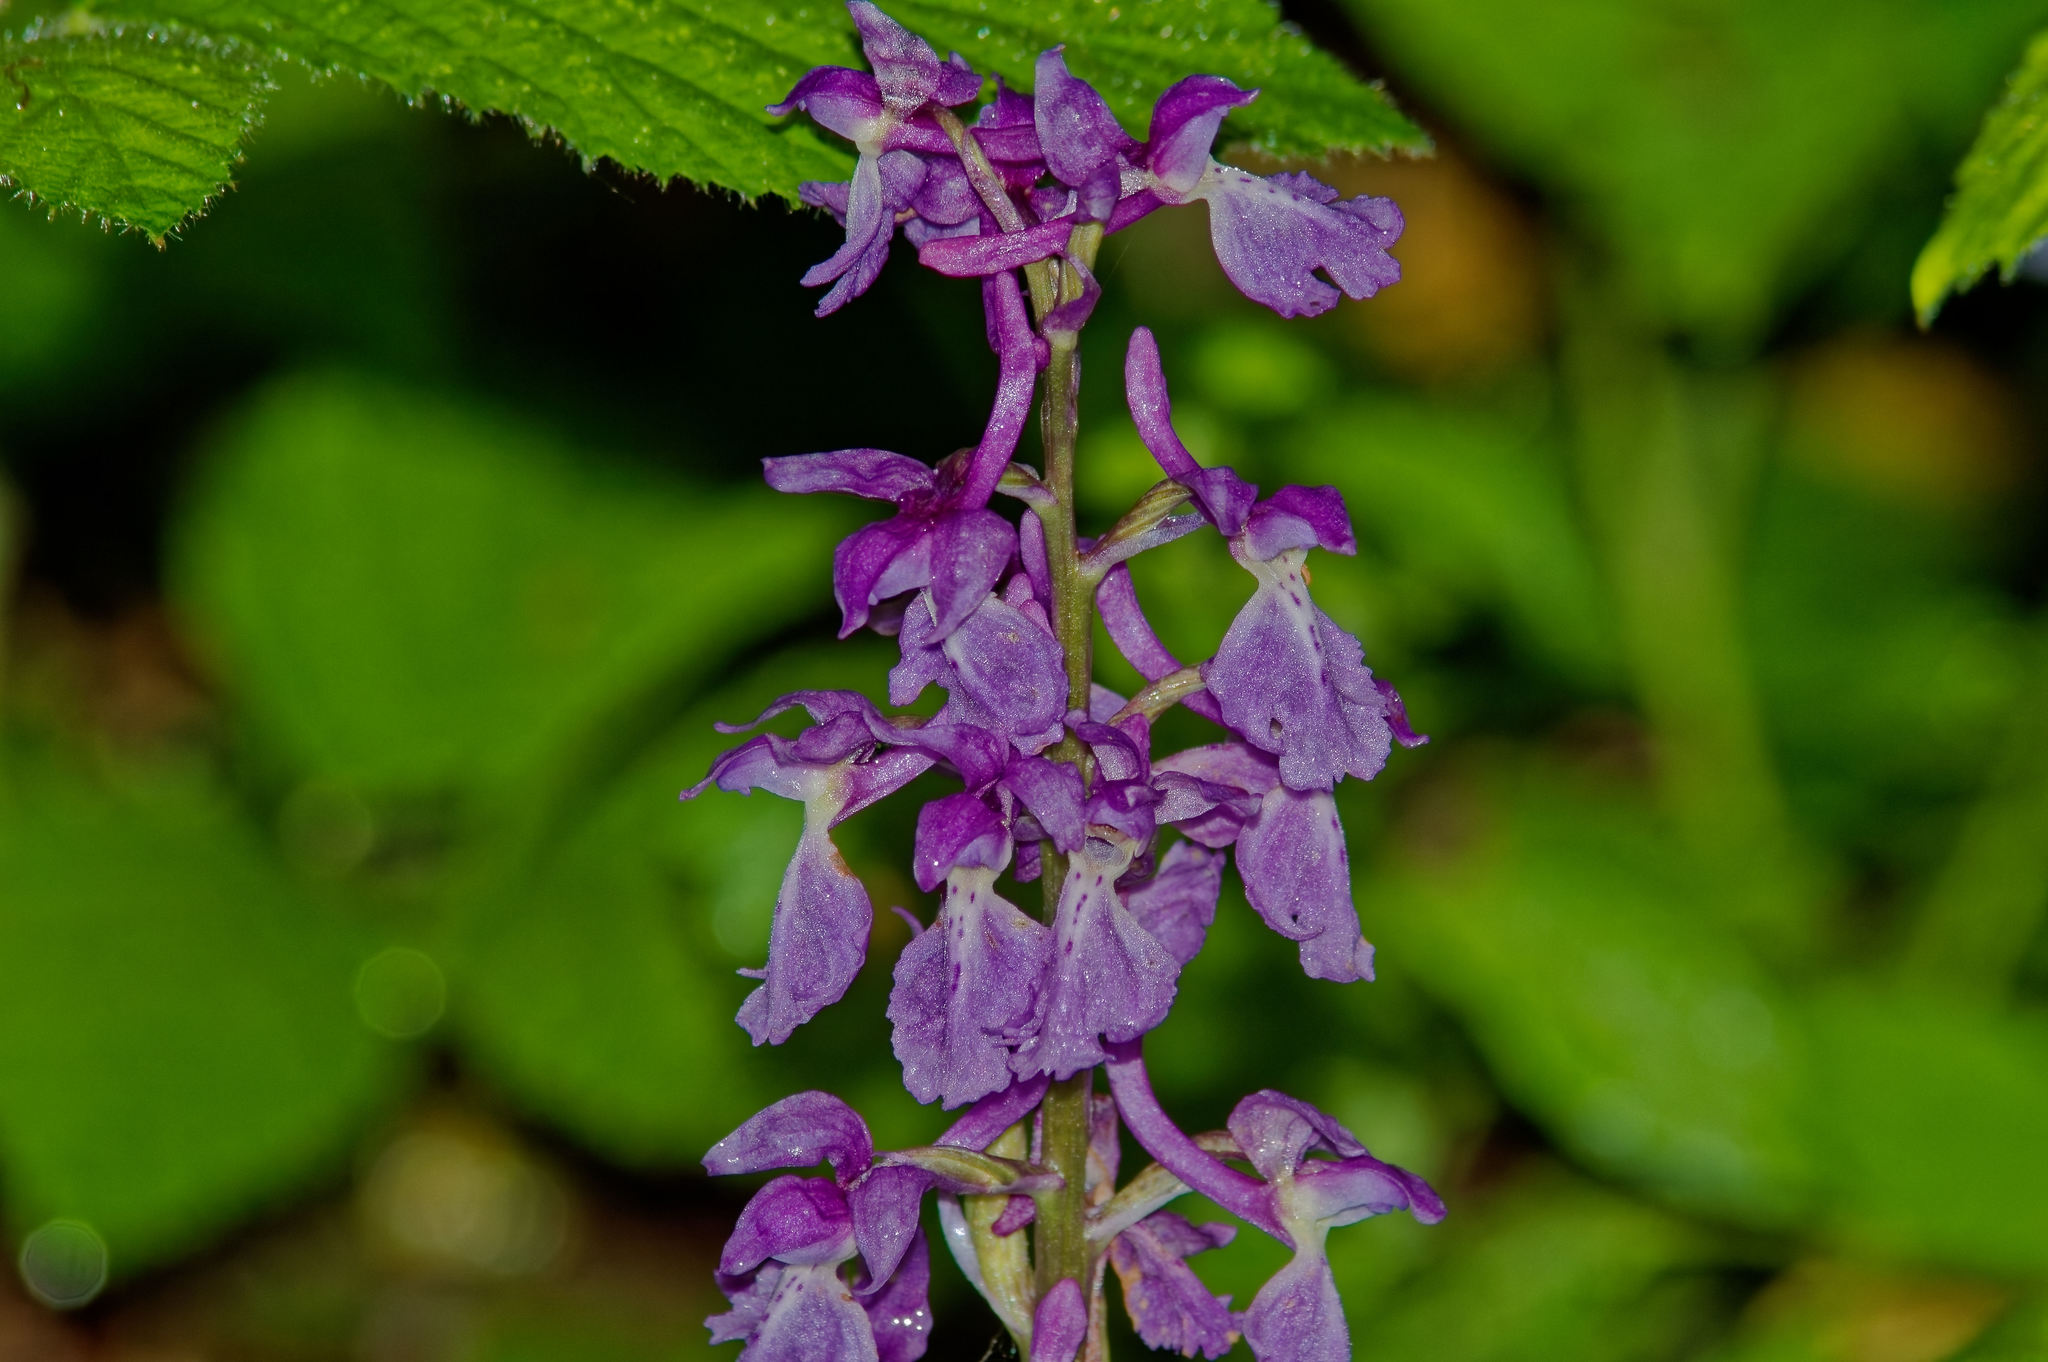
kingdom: Plantae
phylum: Tracheophyta
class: Liliopsida
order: Asparagales
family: Orchidaceae
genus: Orchis
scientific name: Orchis mascula
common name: Early-purple orchid
